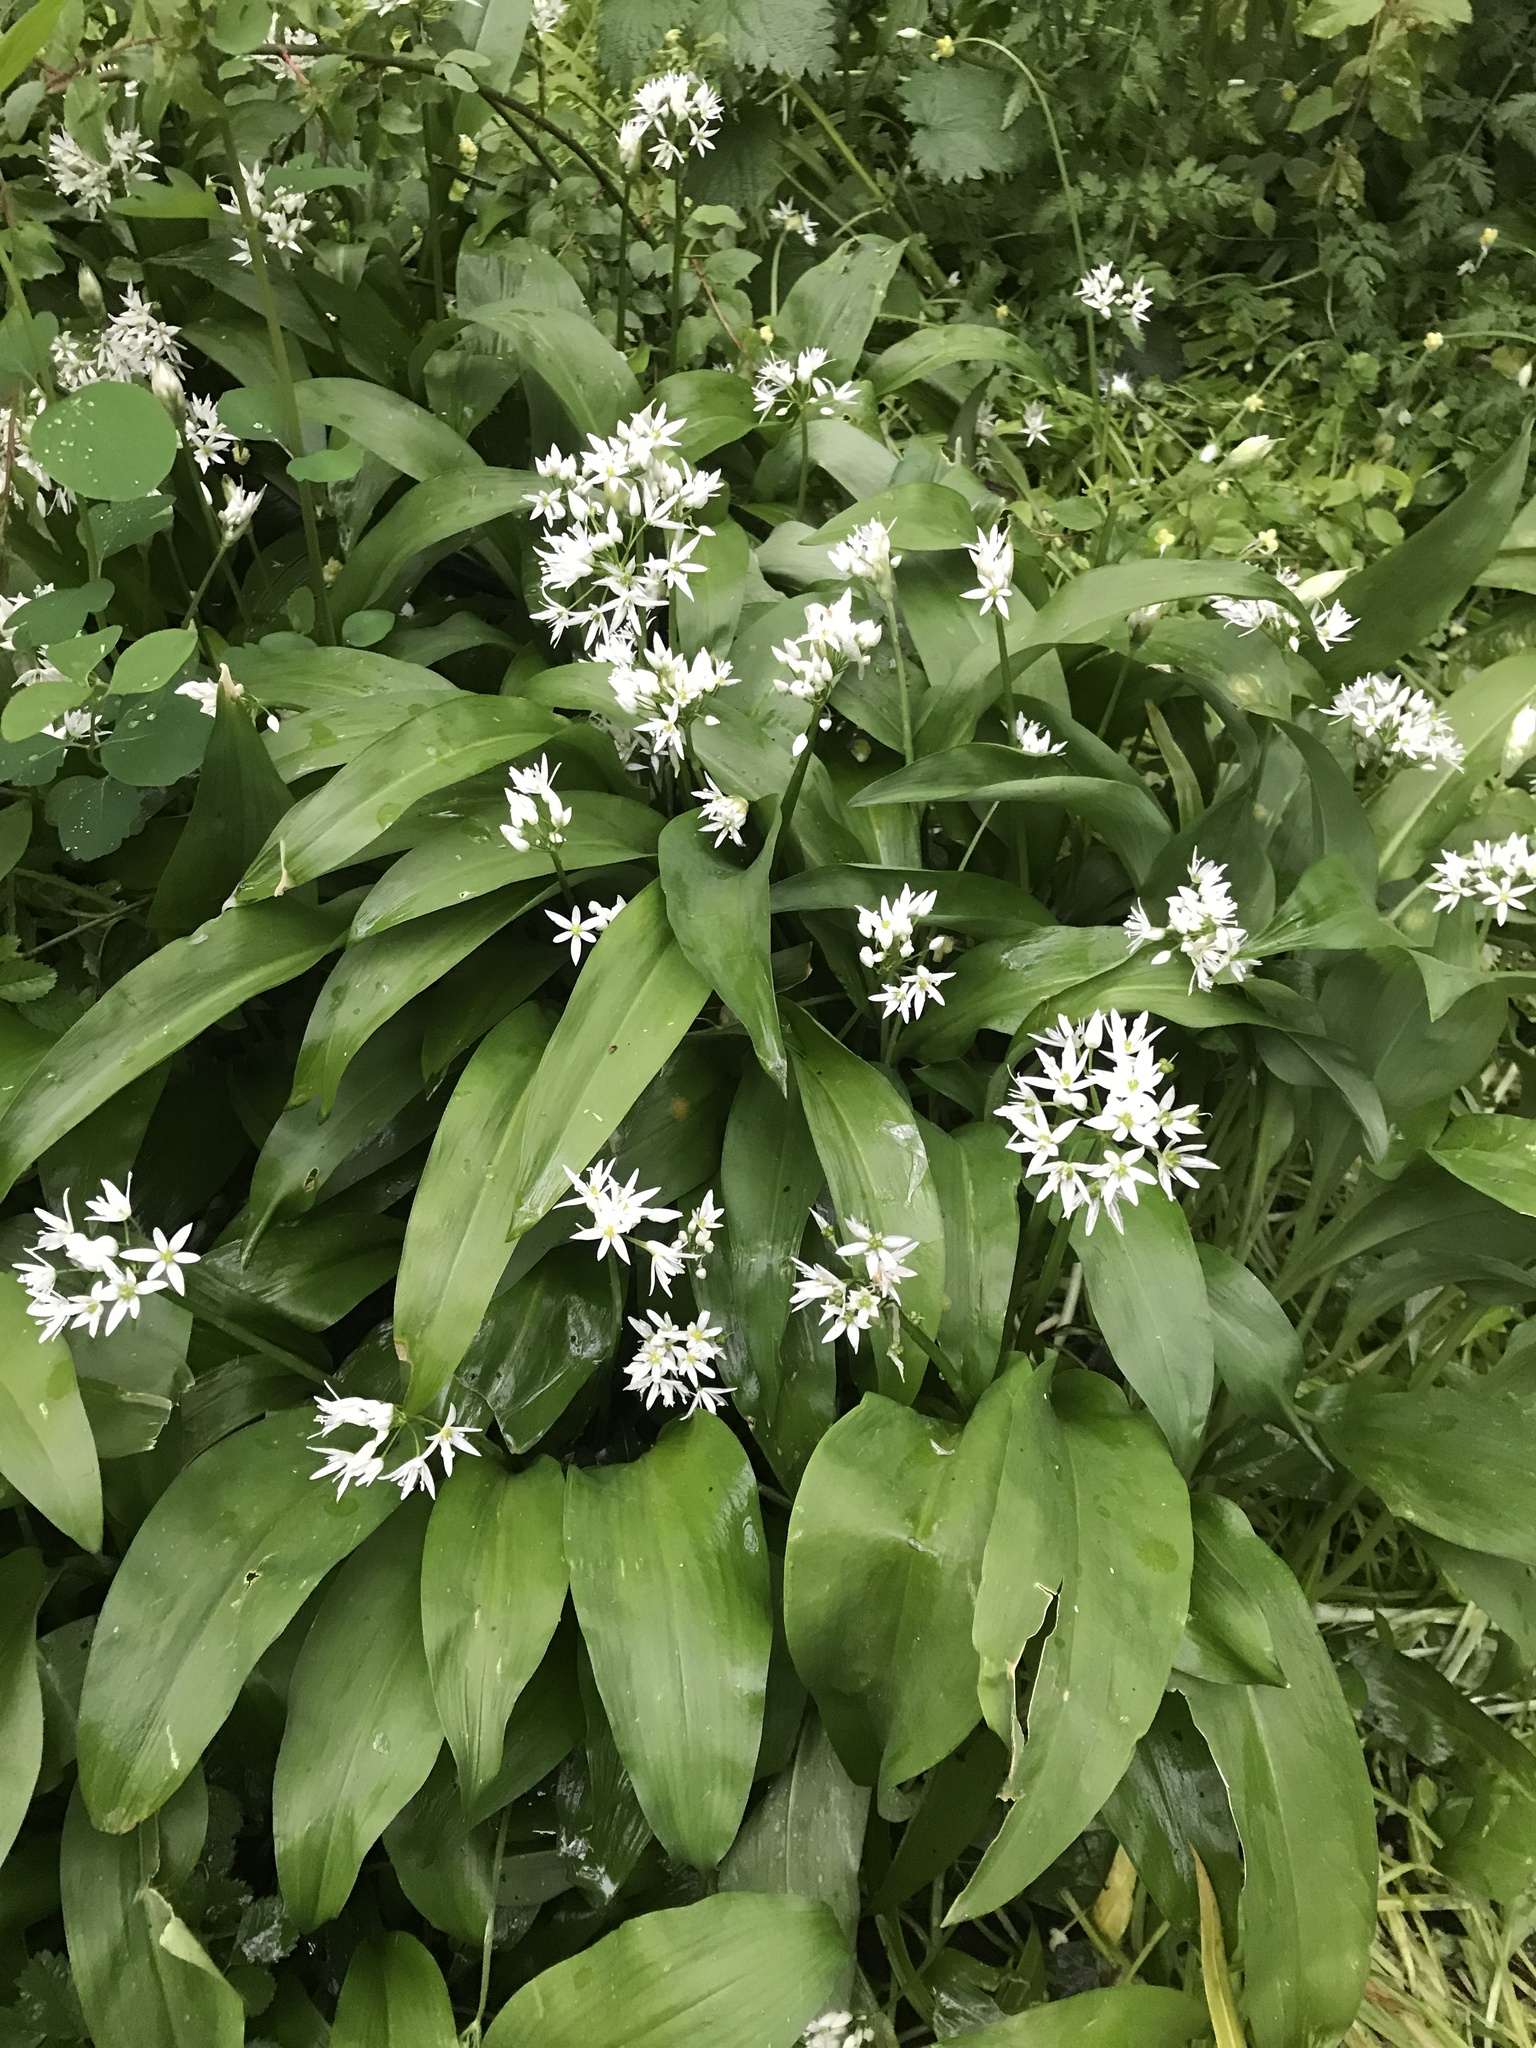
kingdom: Plantae
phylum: Tracheophyta
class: Liliopsida
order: Asparagales
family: Amaryllidaceae
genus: Allium
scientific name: Allium ursinum
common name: Ramsons
